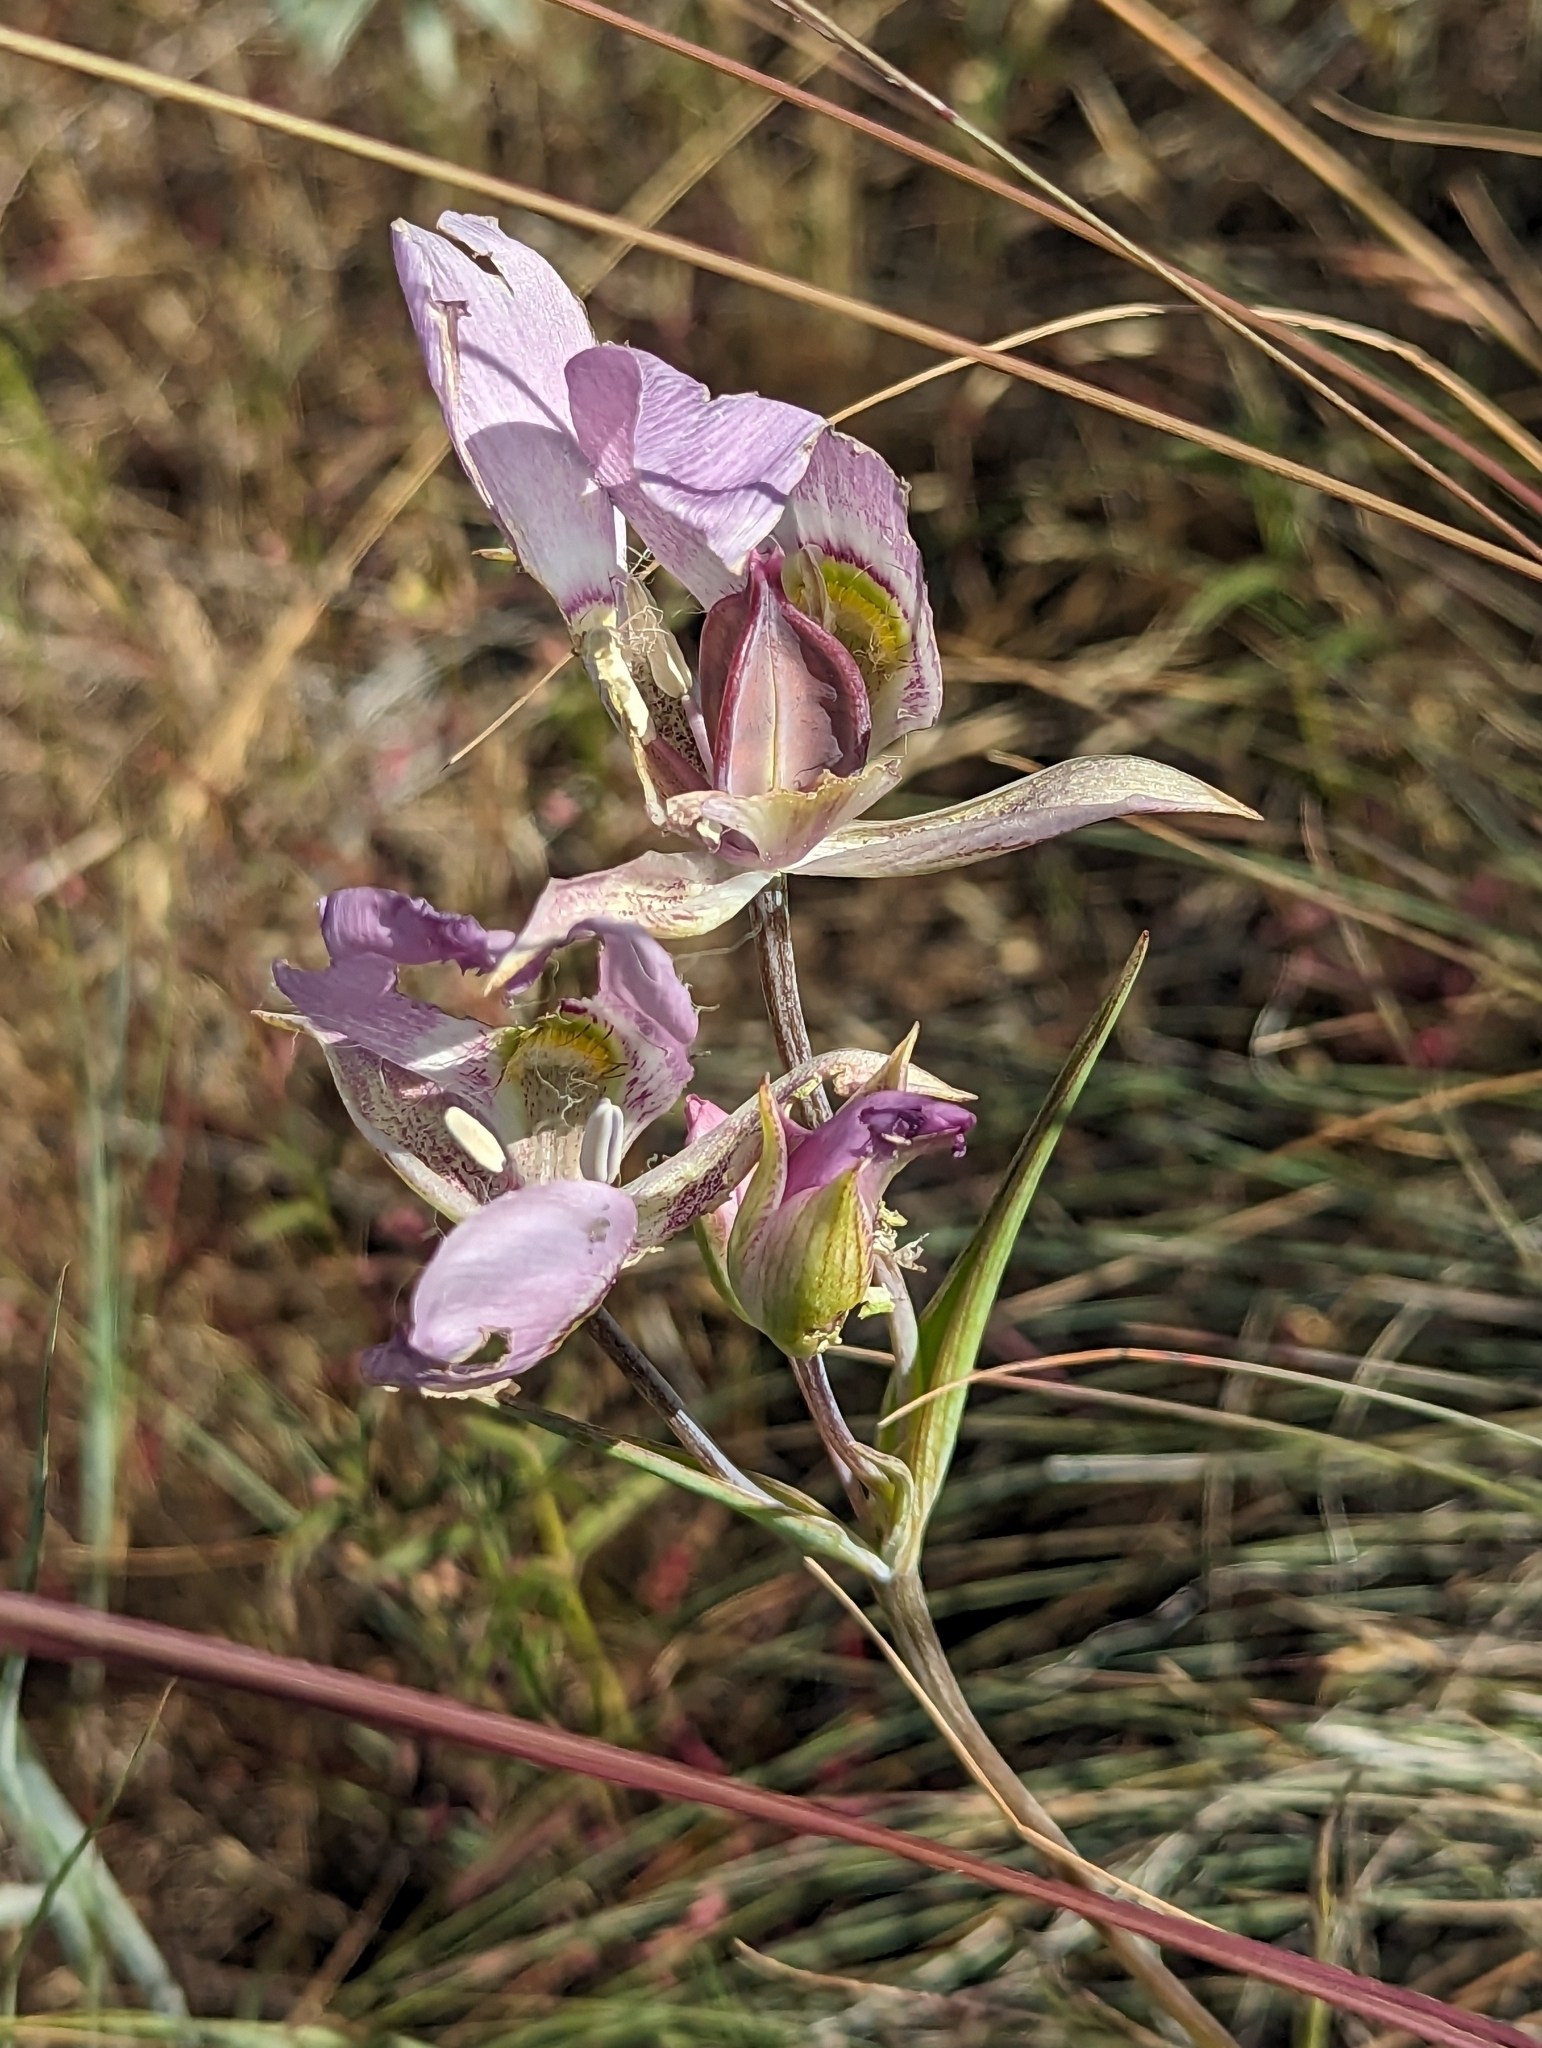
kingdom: Plantae
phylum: Tracheophyta
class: Liliopsida
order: Liliales
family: Liliaceae
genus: Calochortus
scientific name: Calochortus nitidus
